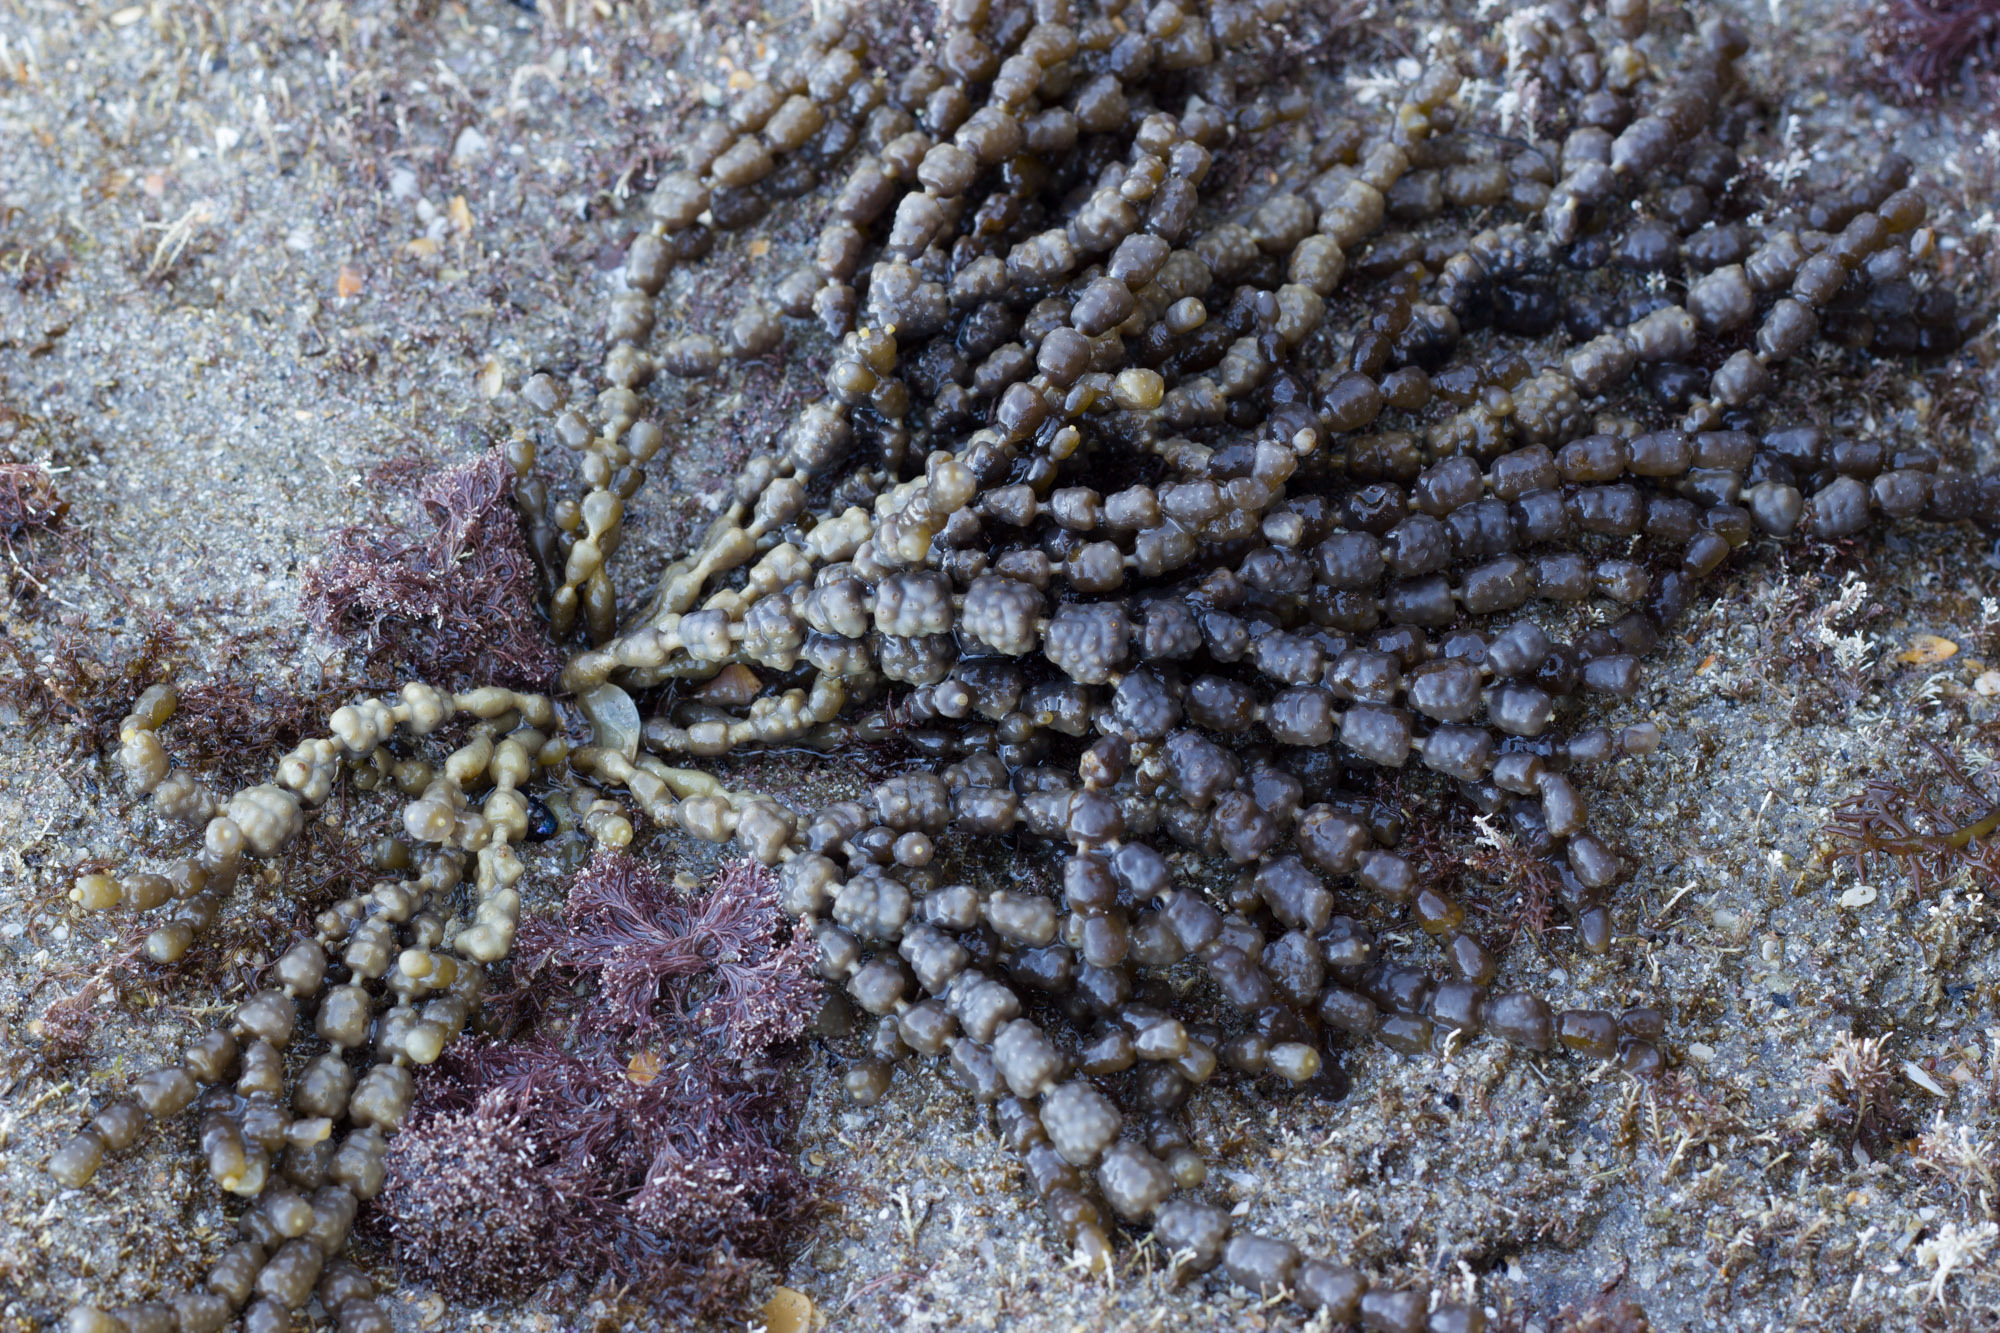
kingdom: Chromista
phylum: Ochrophyta
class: Phaeophyceae
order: Fucales
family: Hormosiraceae
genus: Hormosira
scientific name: Hormosira banksii
